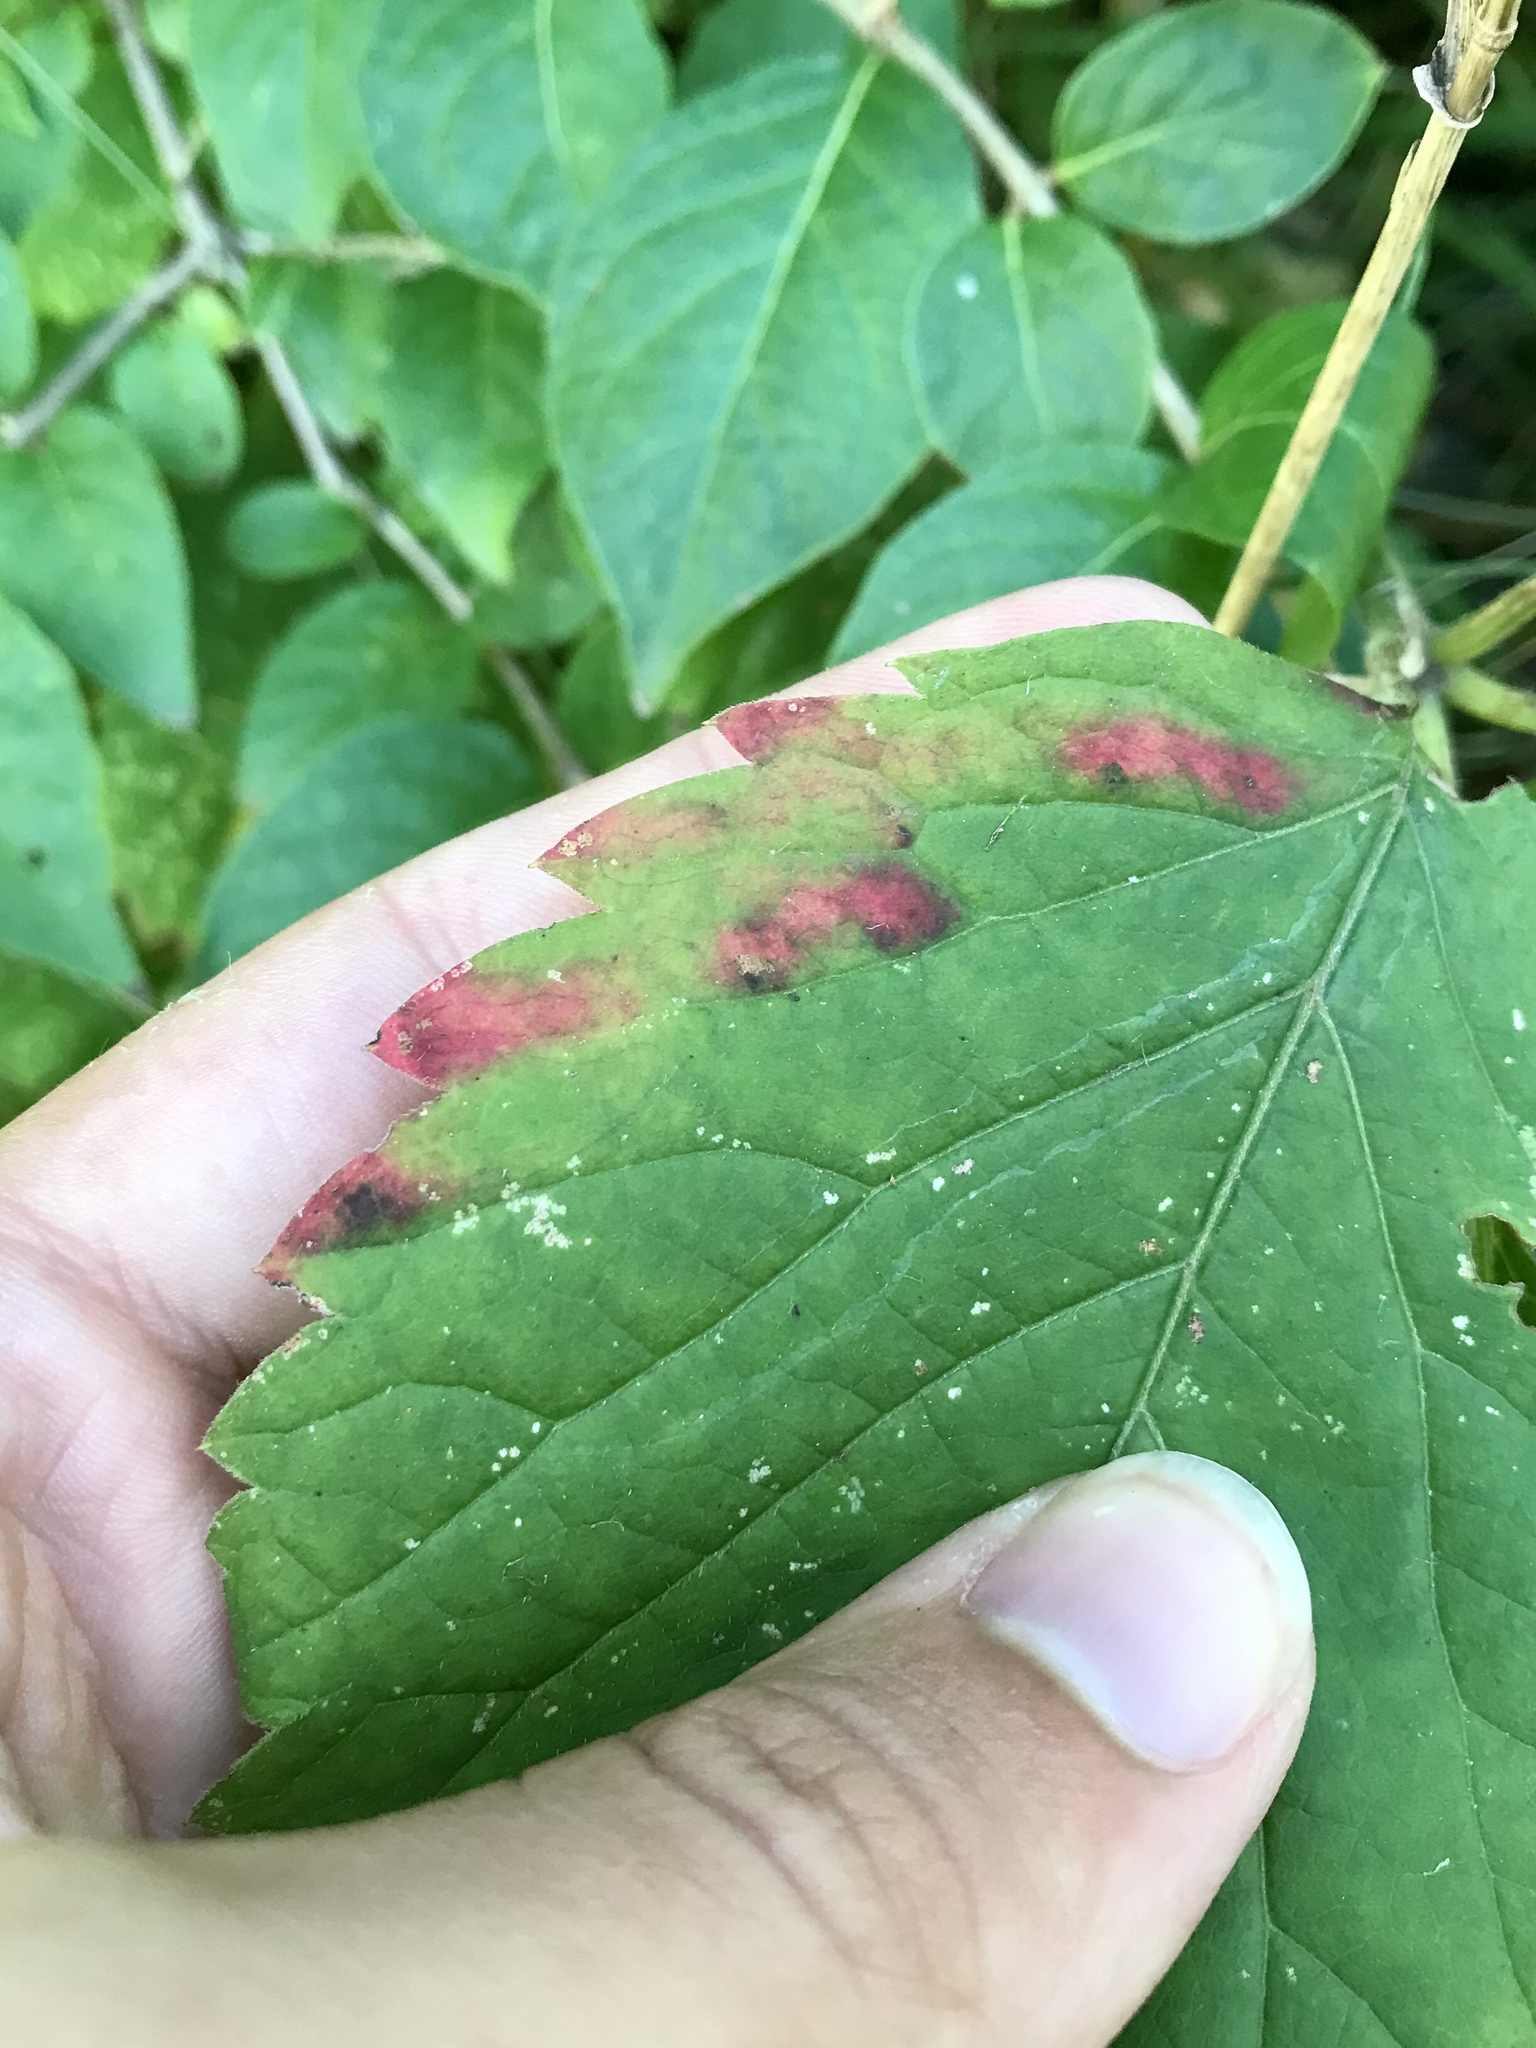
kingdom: Animalia
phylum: Arthropoda
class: Insecta
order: Lepidoptera
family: Gracillariidae
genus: Phyllocnistis
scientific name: Phyllocnistis ampelopsiella
